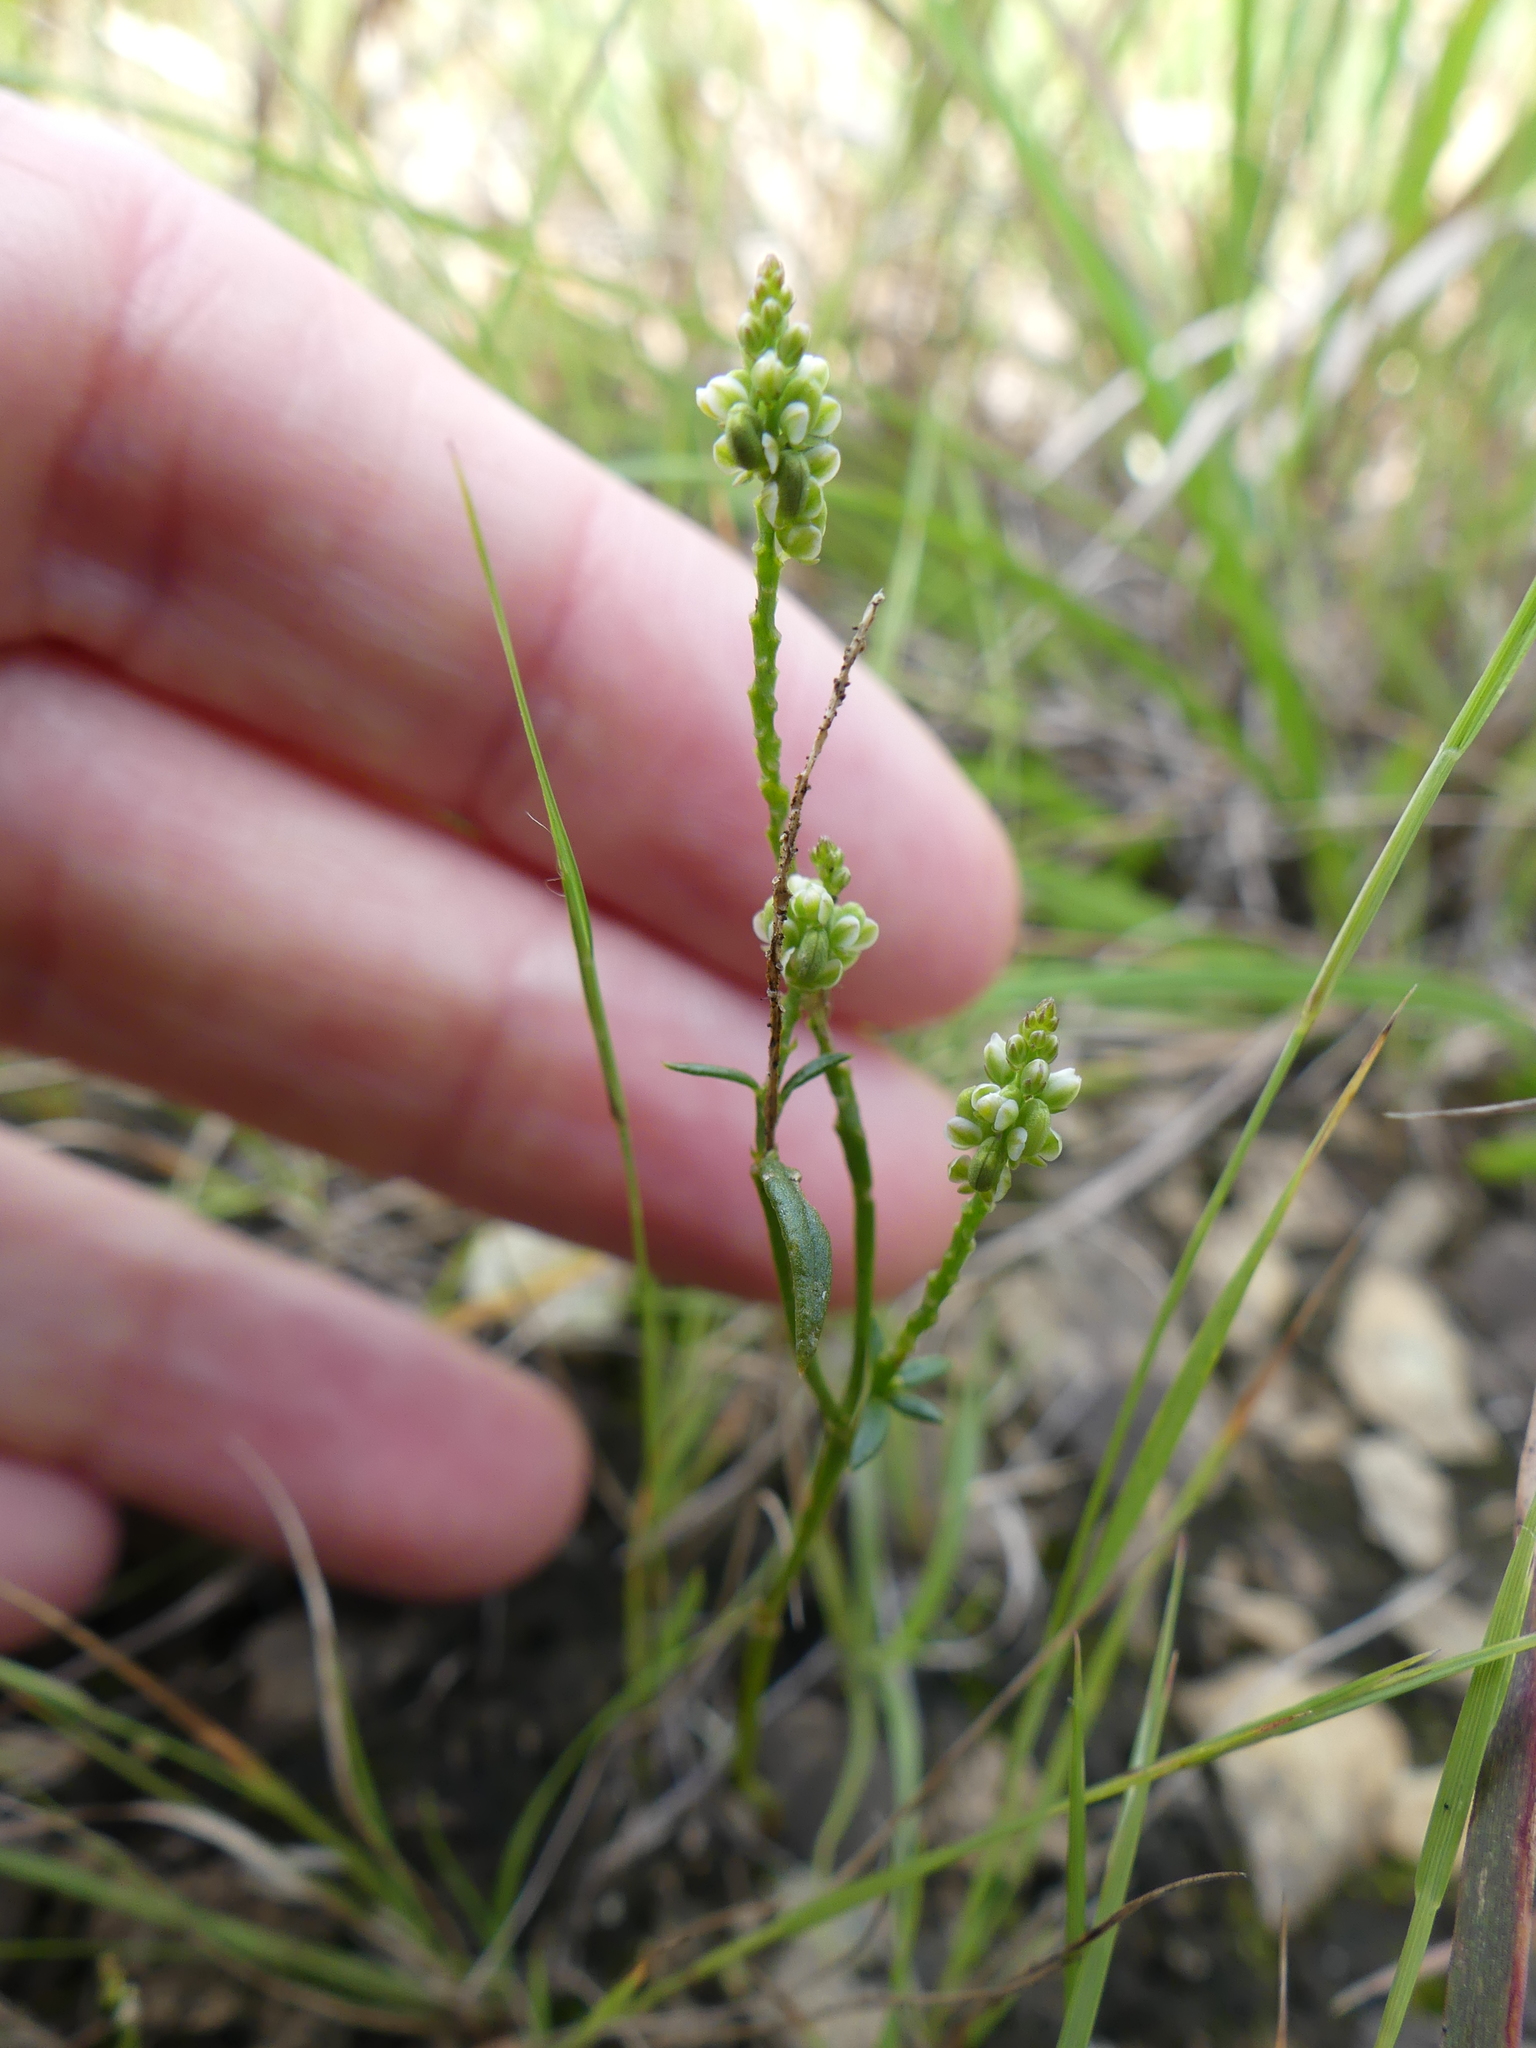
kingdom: Plantae
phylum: Tracheophyta
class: Magnoliopsida
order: Fabales
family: Polygalaceae
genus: Polygala
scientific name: Polygala verticillata
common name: Whorl milkwort
